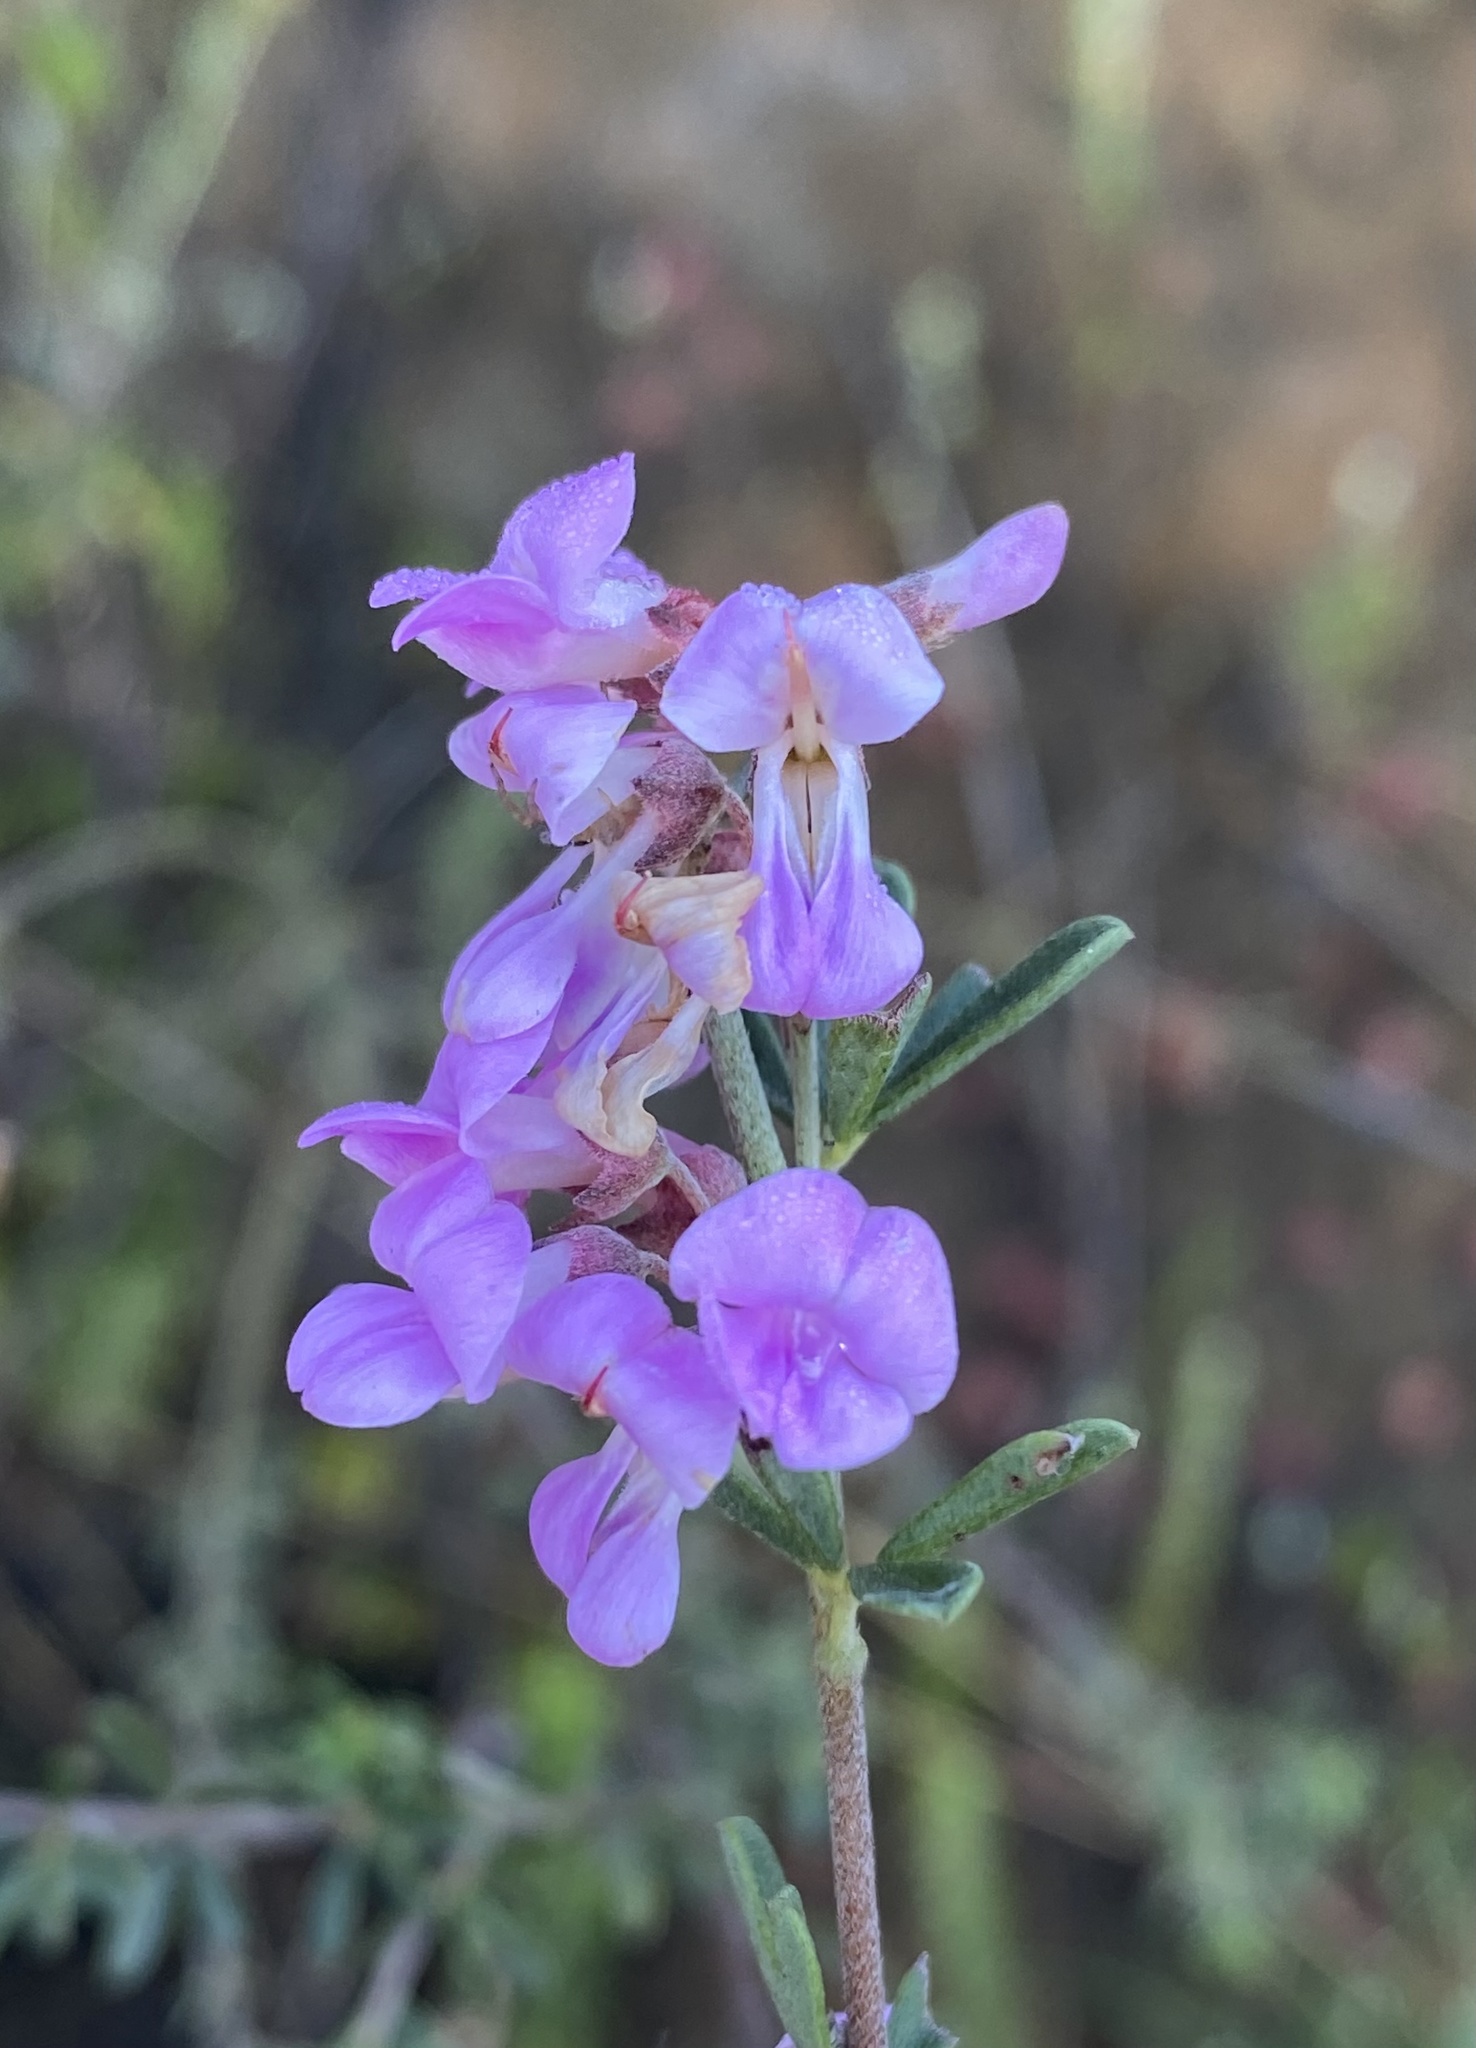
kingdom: Plantae
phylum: Tracheophyta
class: Magnoliopsida
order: Fabales
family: Fabaceae
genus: Indigofera
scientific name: Indigofera flabellata
